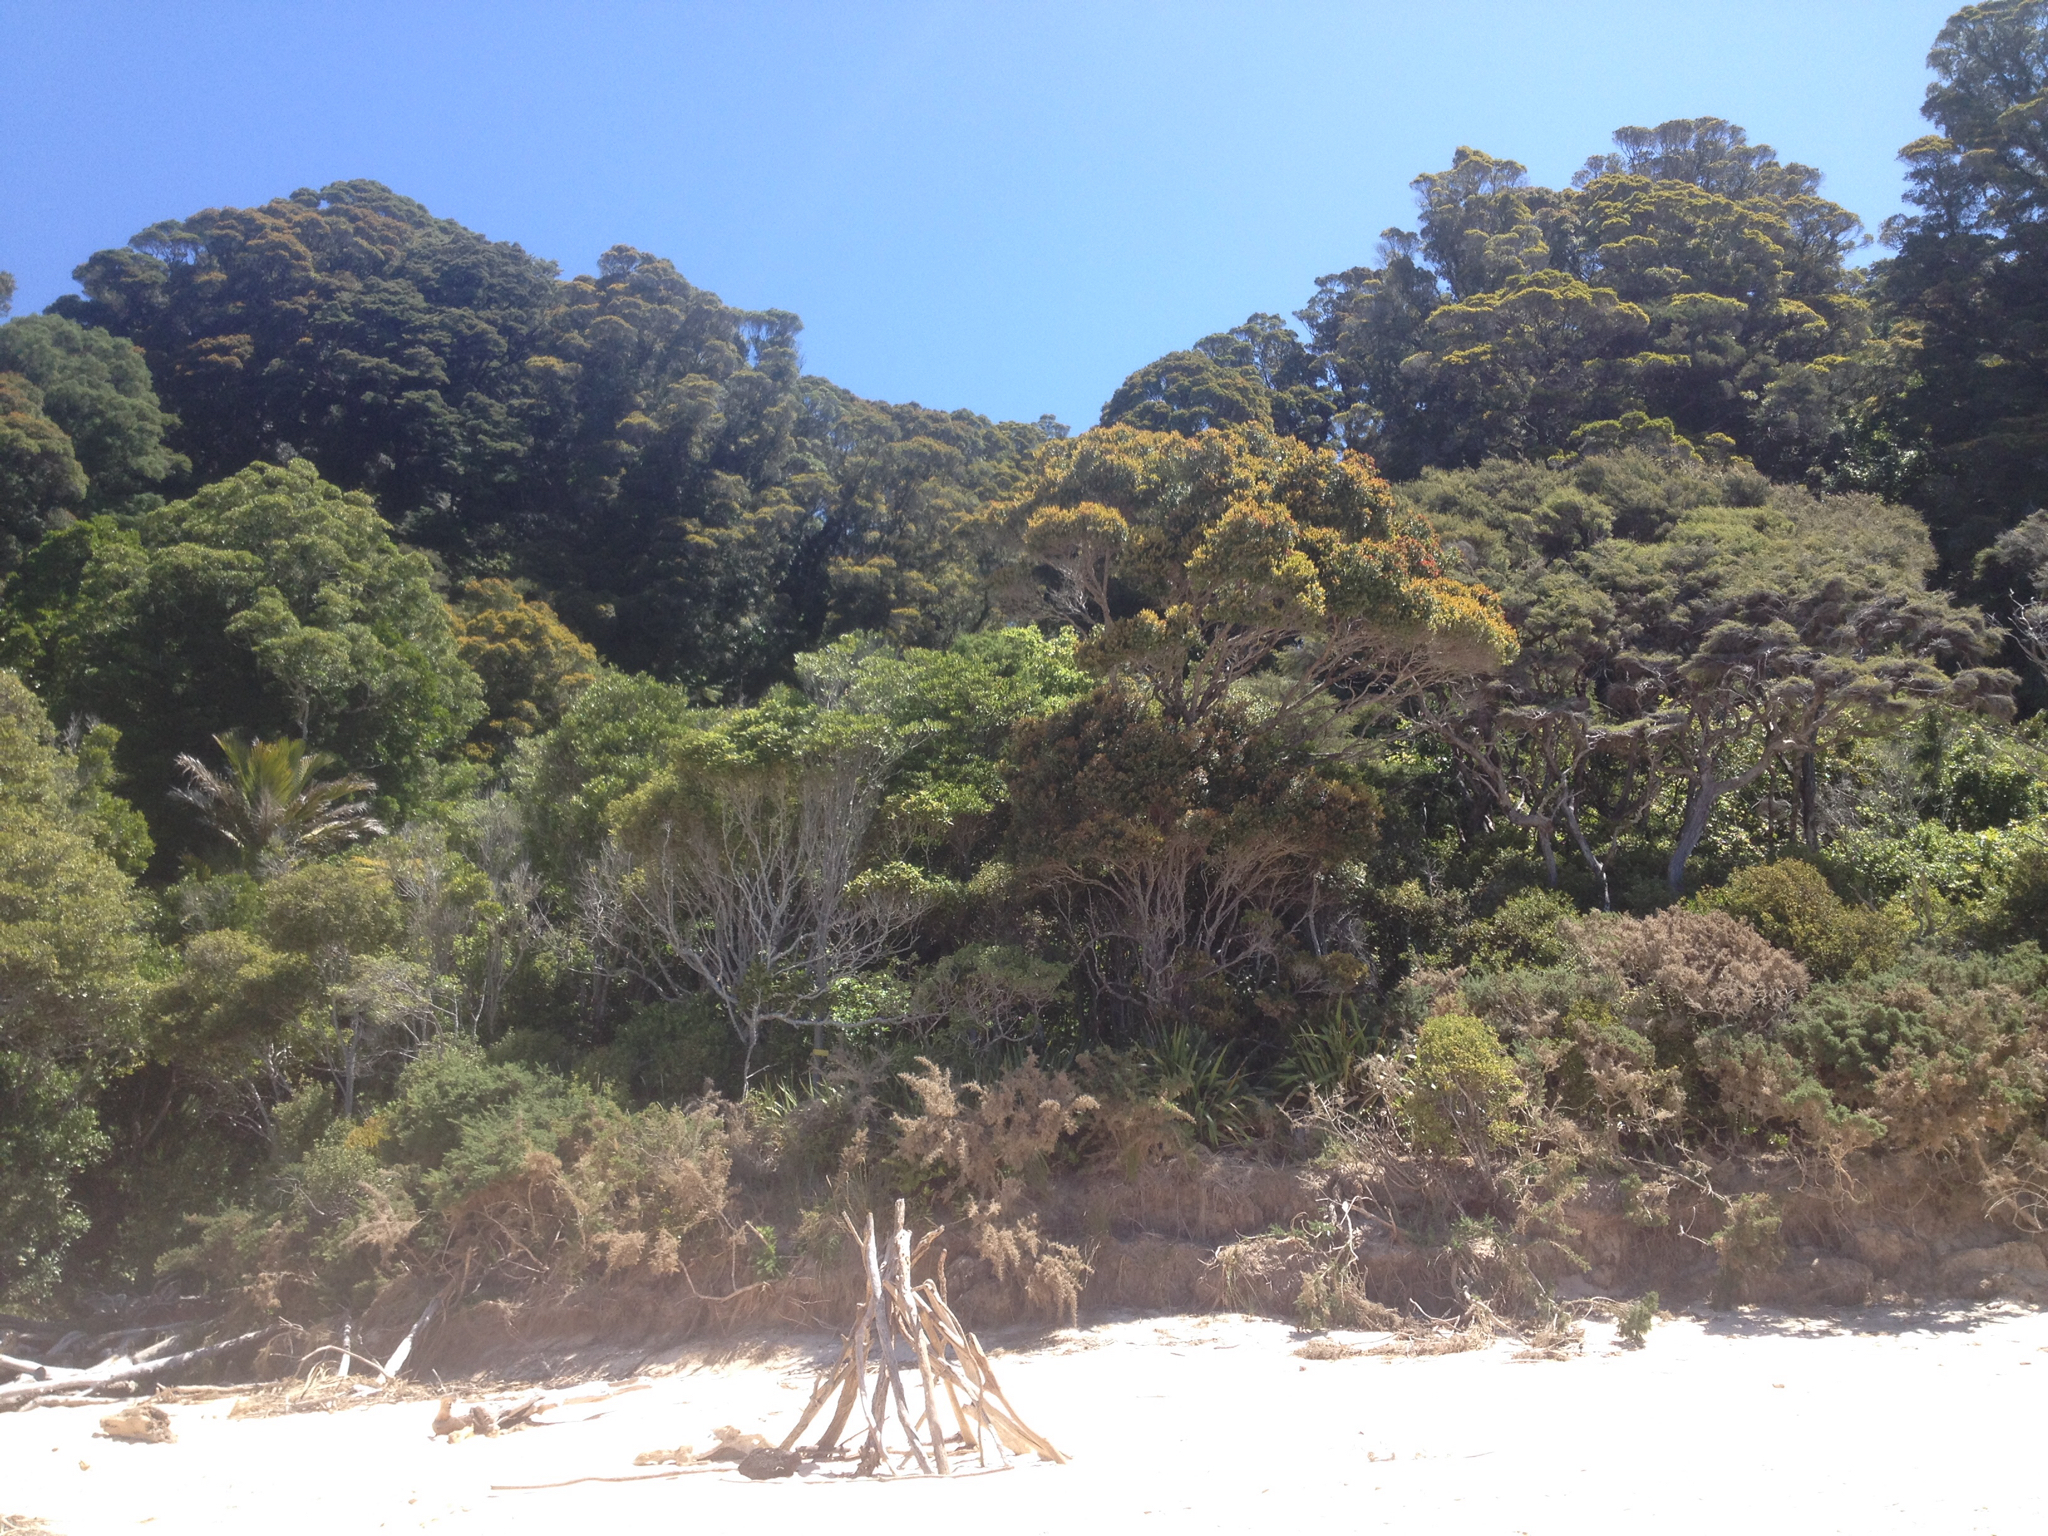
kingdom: Plantae
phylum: Tracheophyta
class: Magnoliopsida
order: Myrtales
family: Myrtaceae
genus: Metrosideros
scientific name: Metrosideros robusta
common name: Northern rata
